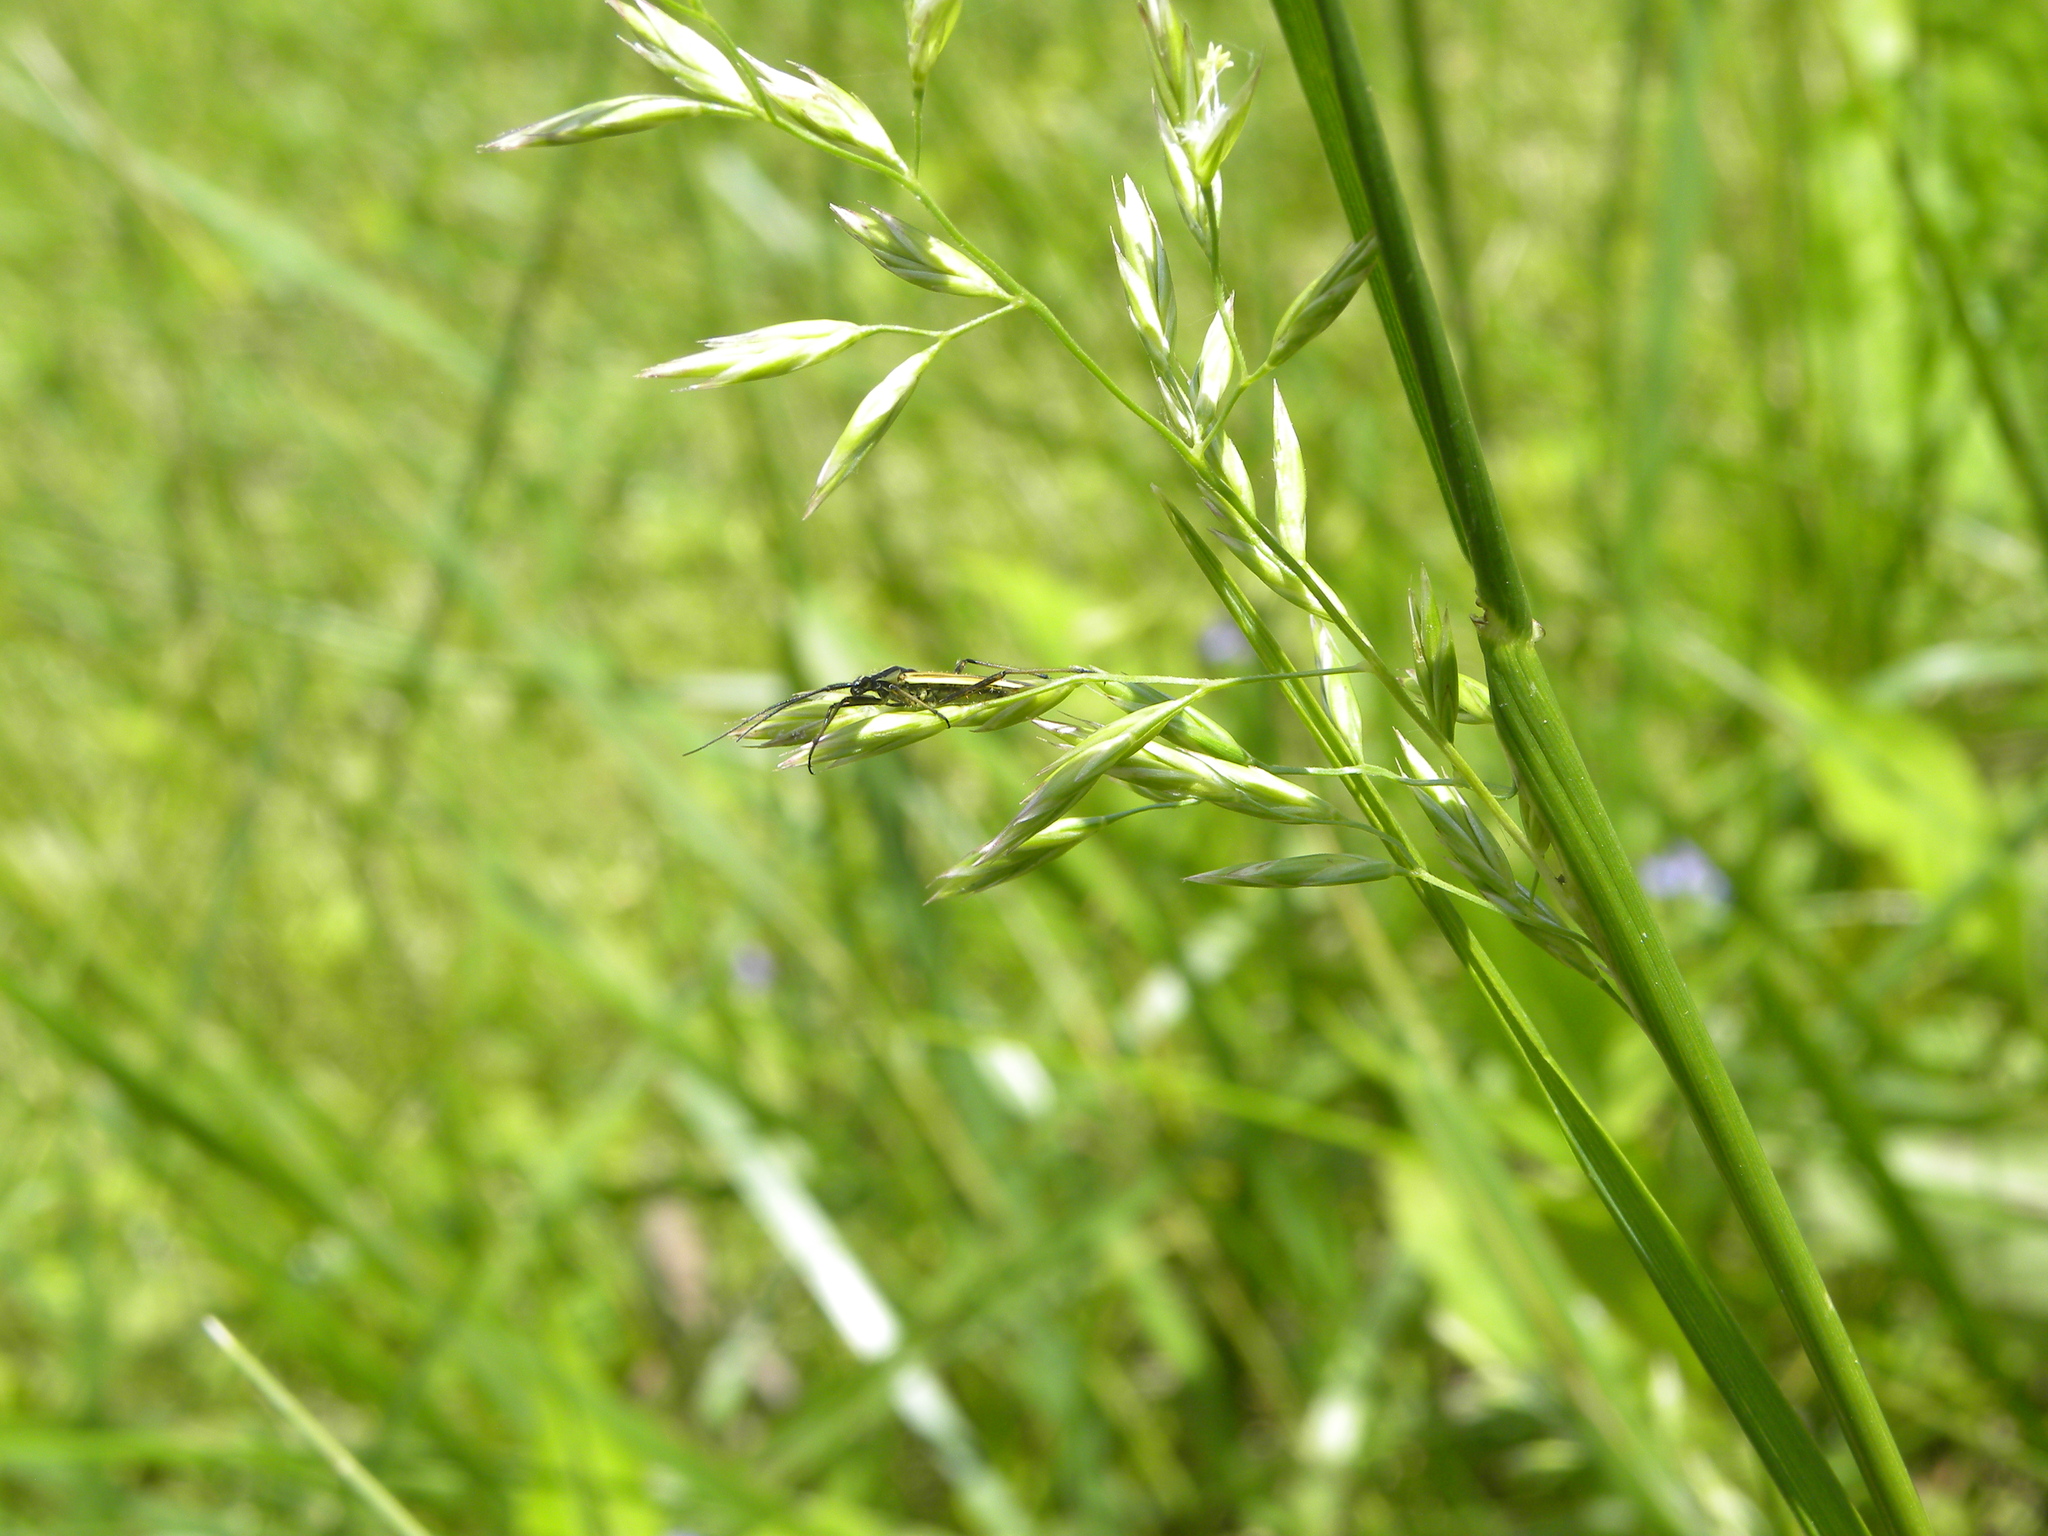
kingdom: Animalia
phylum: Arthropoda
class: Insecta
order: Hemiptera
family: Miridae
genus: Leptopterna
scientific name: Leptopterna dolabrata
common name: Meadow plant bug
